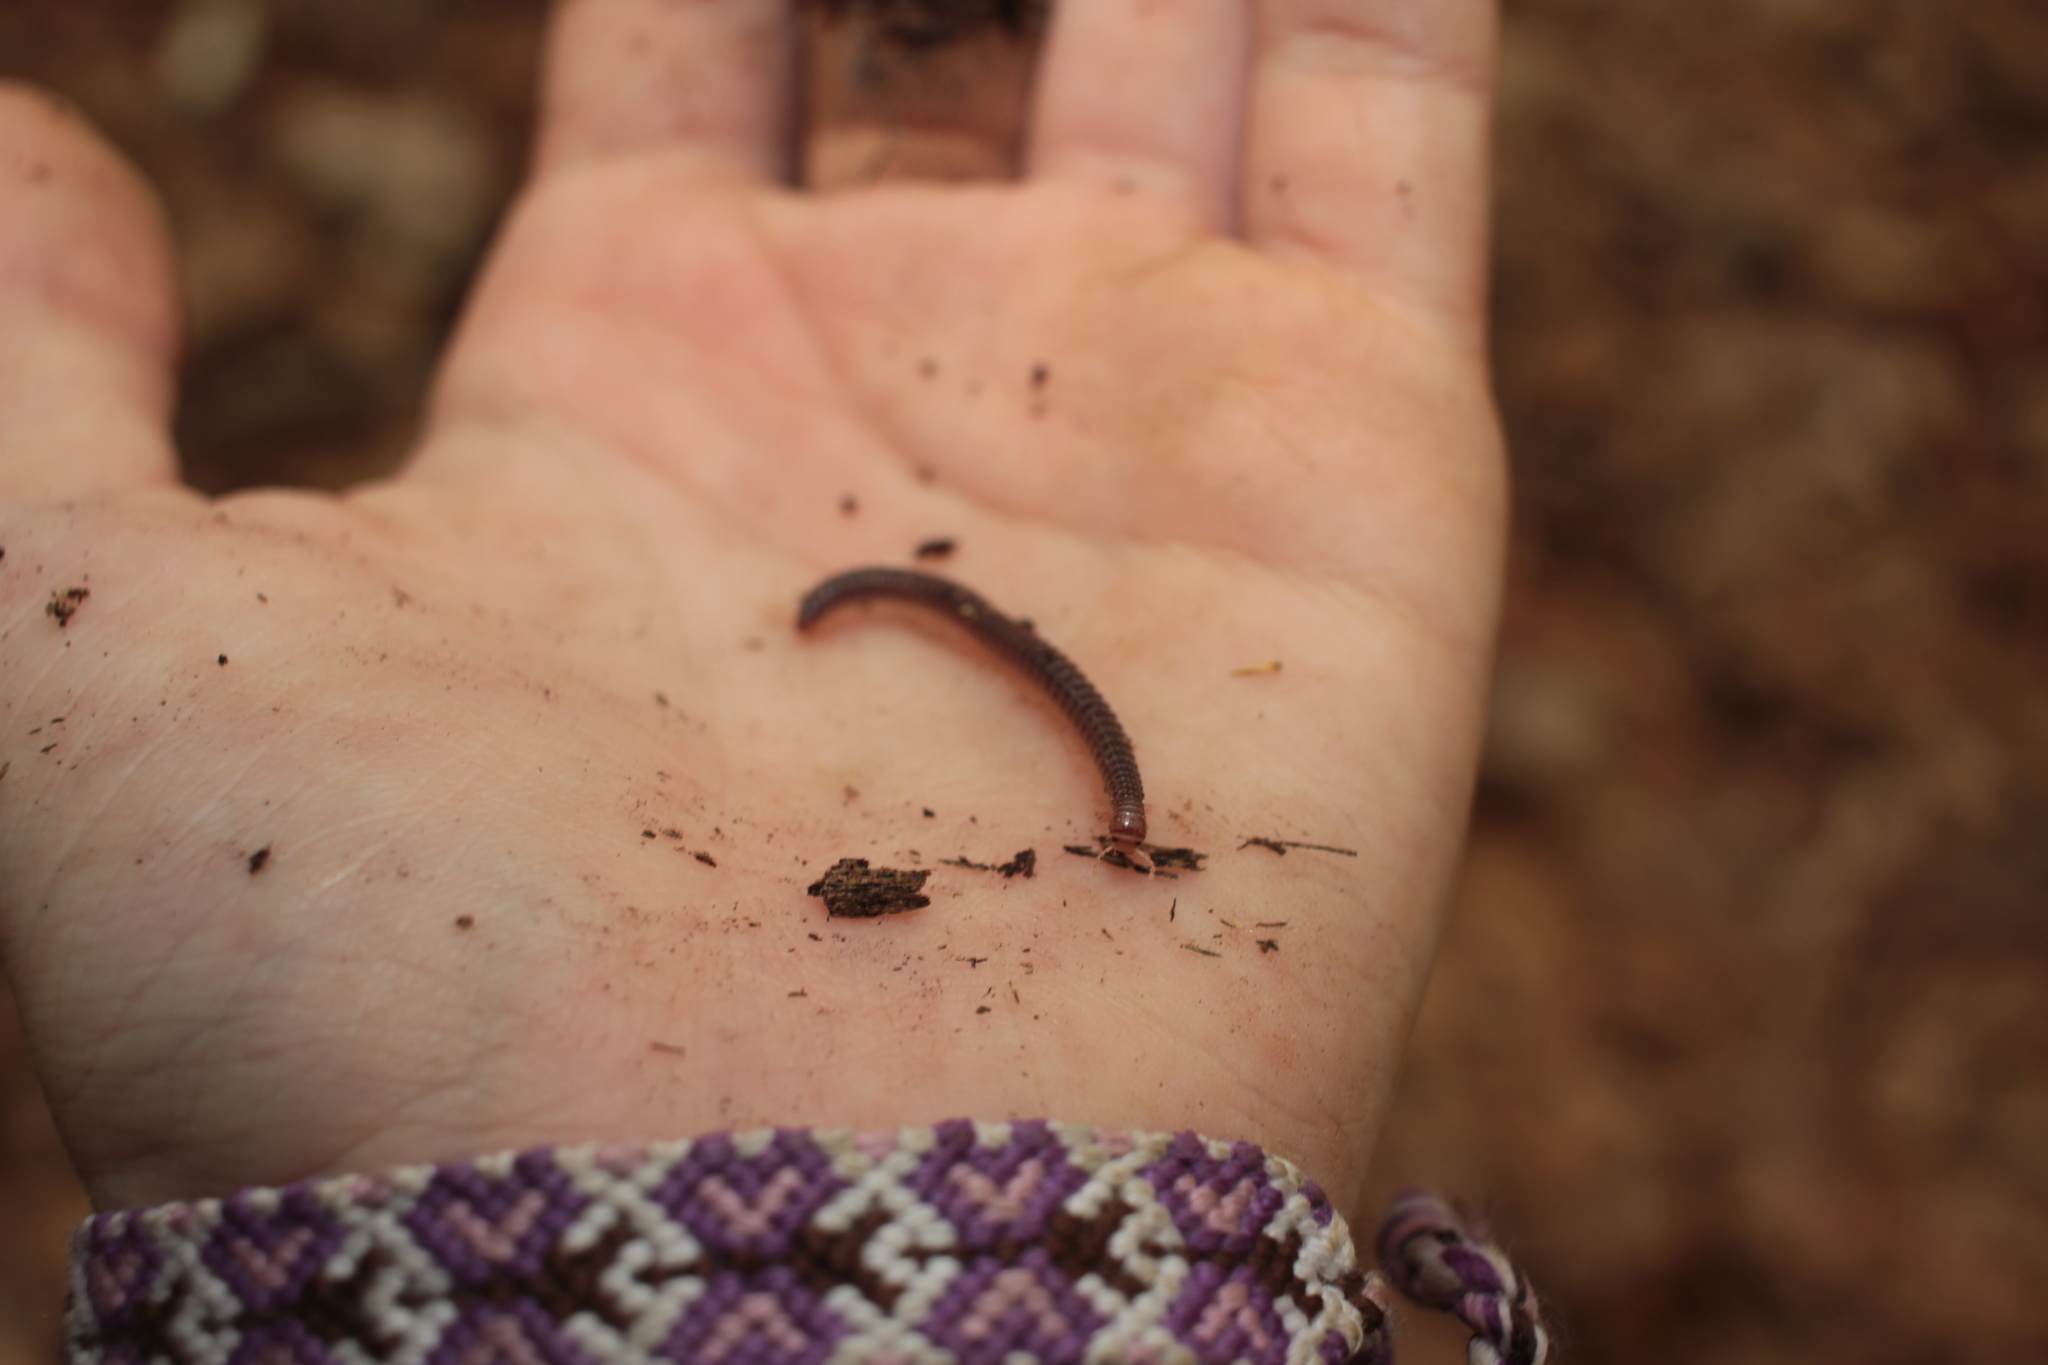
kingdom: Animalia
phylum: Arthropoda
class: Diplopoda
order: Spirostreptida
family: Cambalidae
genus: Cambala
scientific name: Cambala
